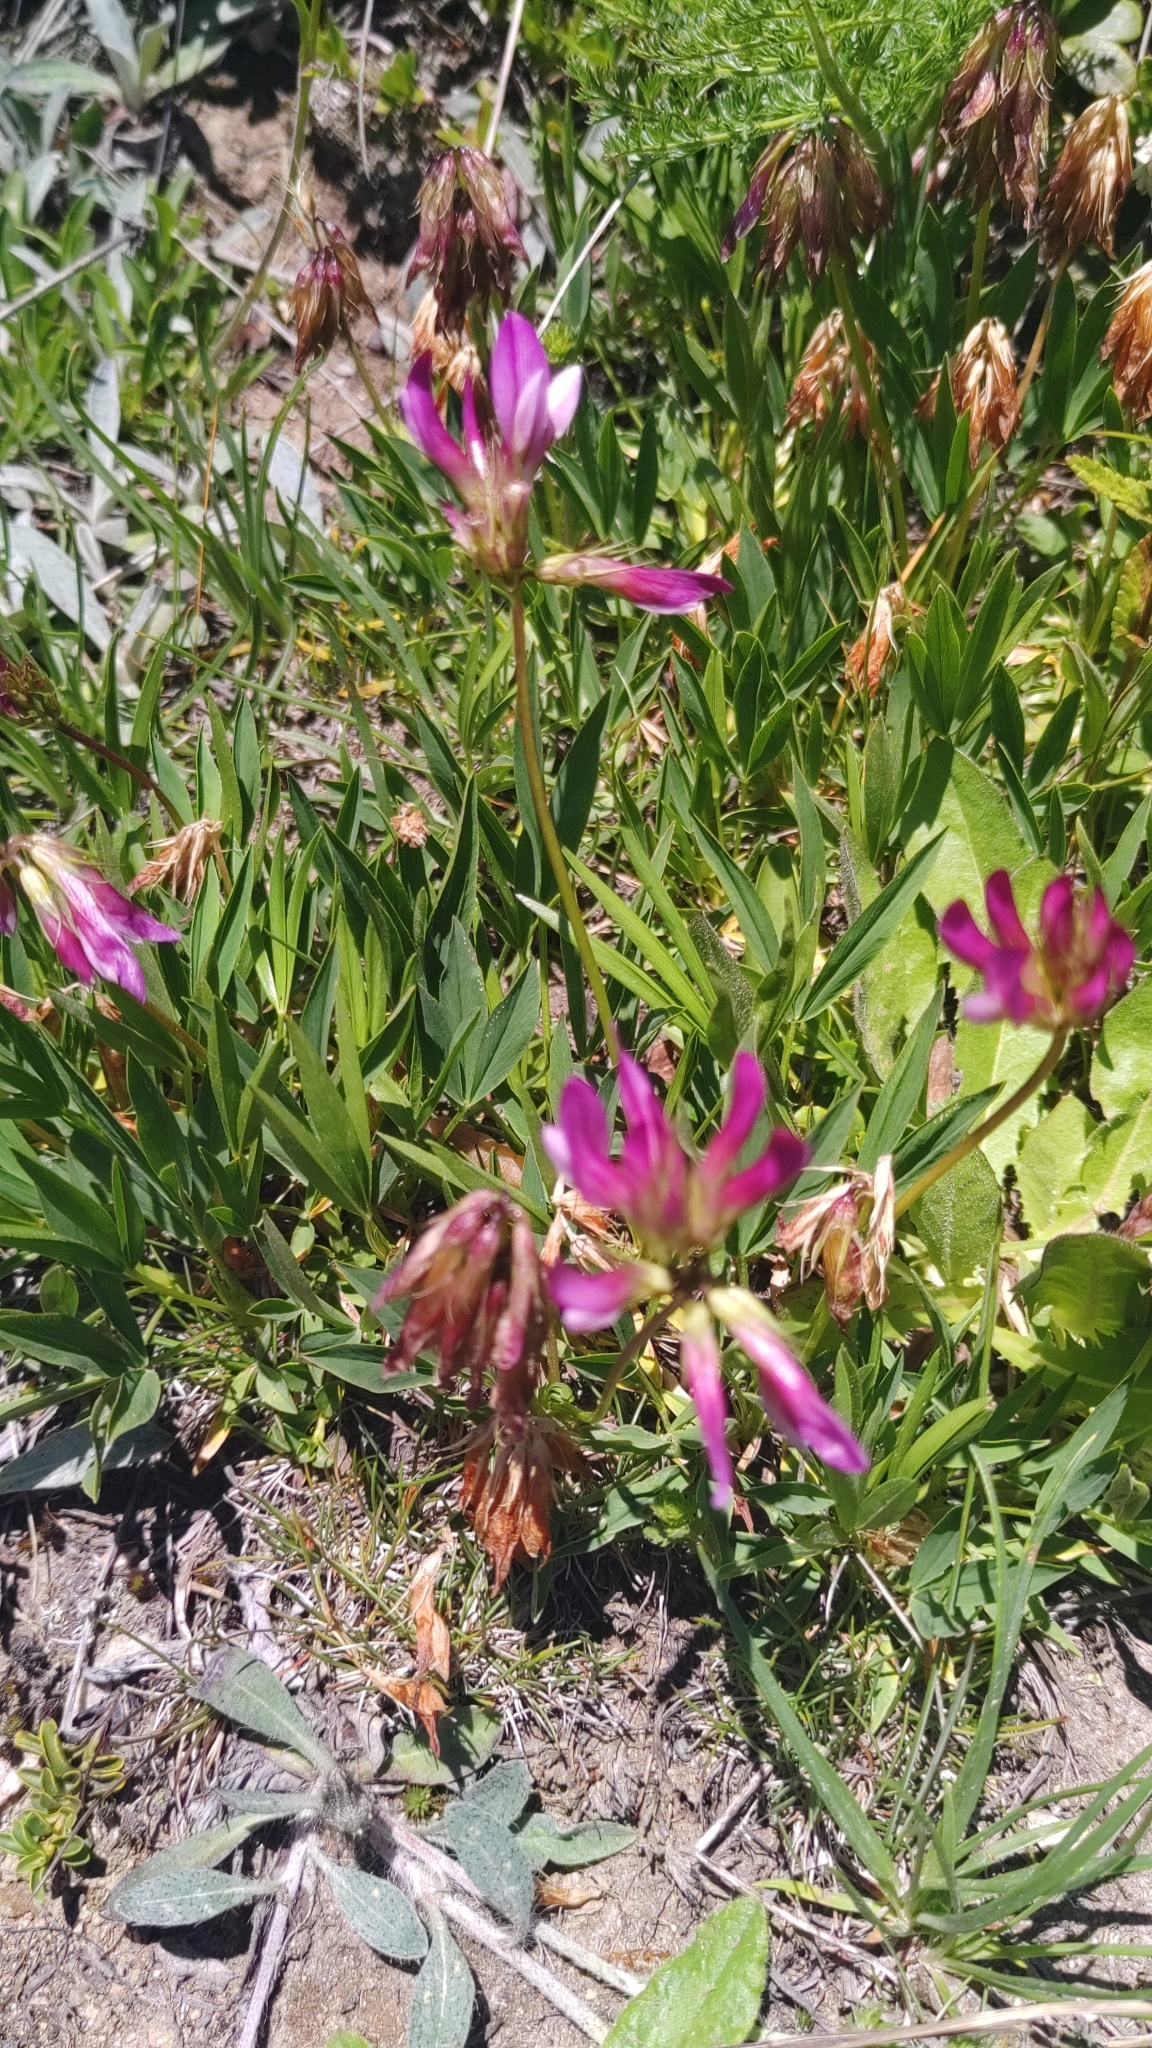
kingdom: Plantae
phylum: Tracheophyta
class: Magnoliopsida
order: Fabales
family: Fabaceae
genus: Trifolium
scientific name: Trifolium alpinum
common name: Alpine clover
